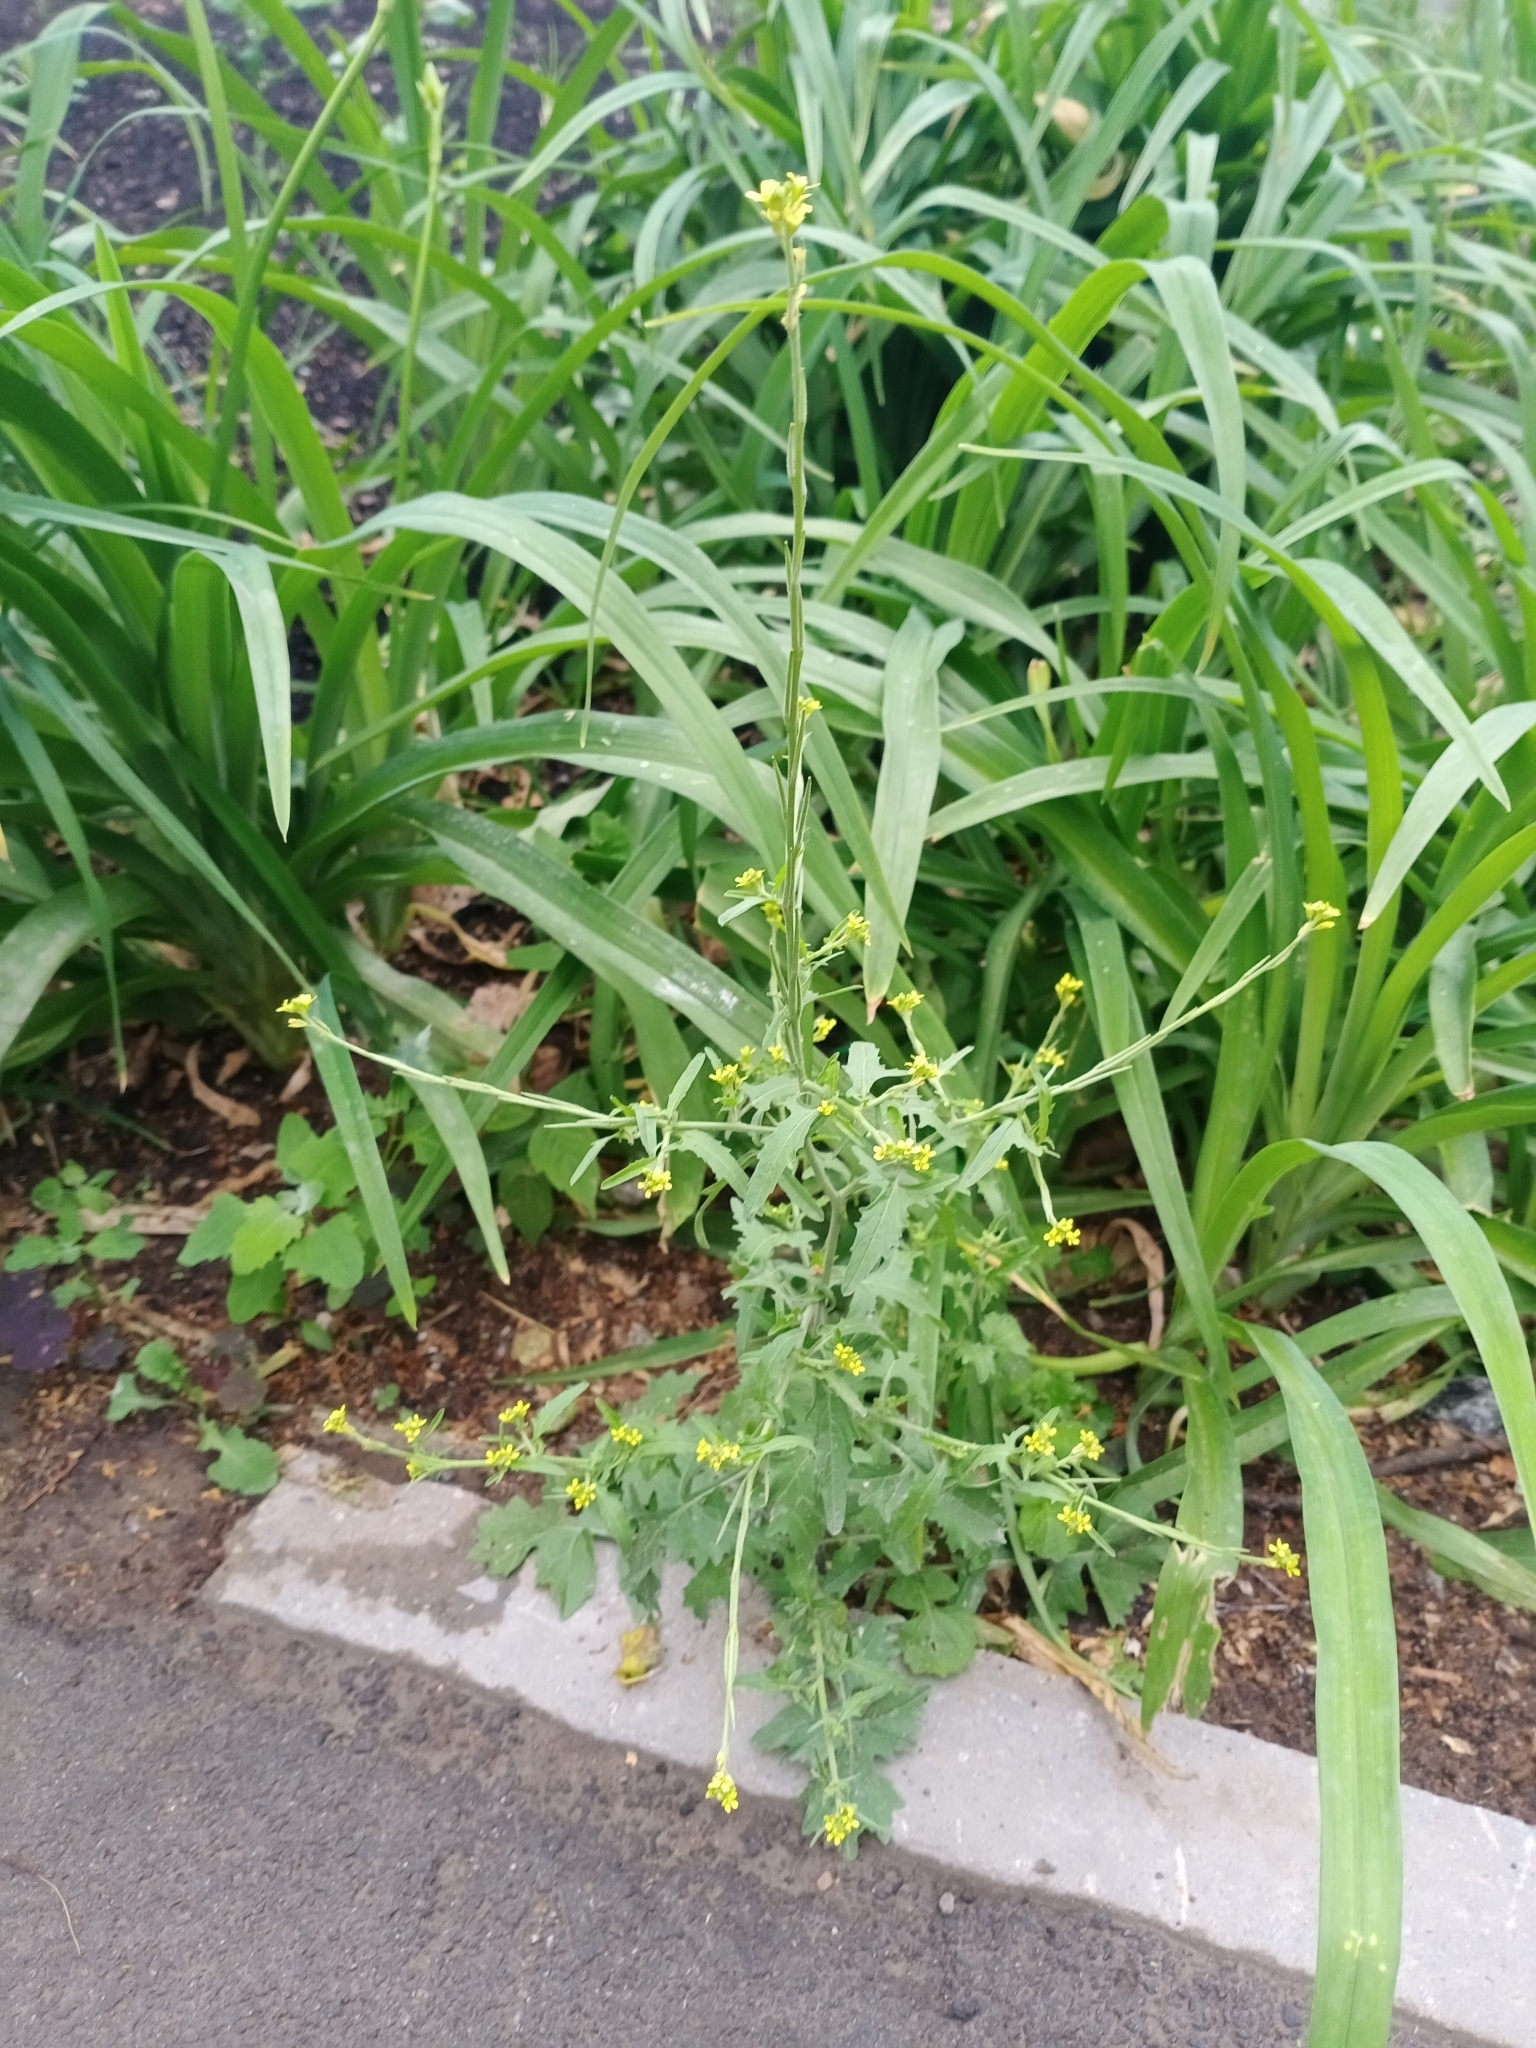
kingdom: Plantae
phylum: Tracheophyta
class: Magnoliopsida
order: Brassicales
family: Brassicaceae
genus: Sisymbrium
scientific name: Sisymbrium officinale
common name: Hedge mustard
